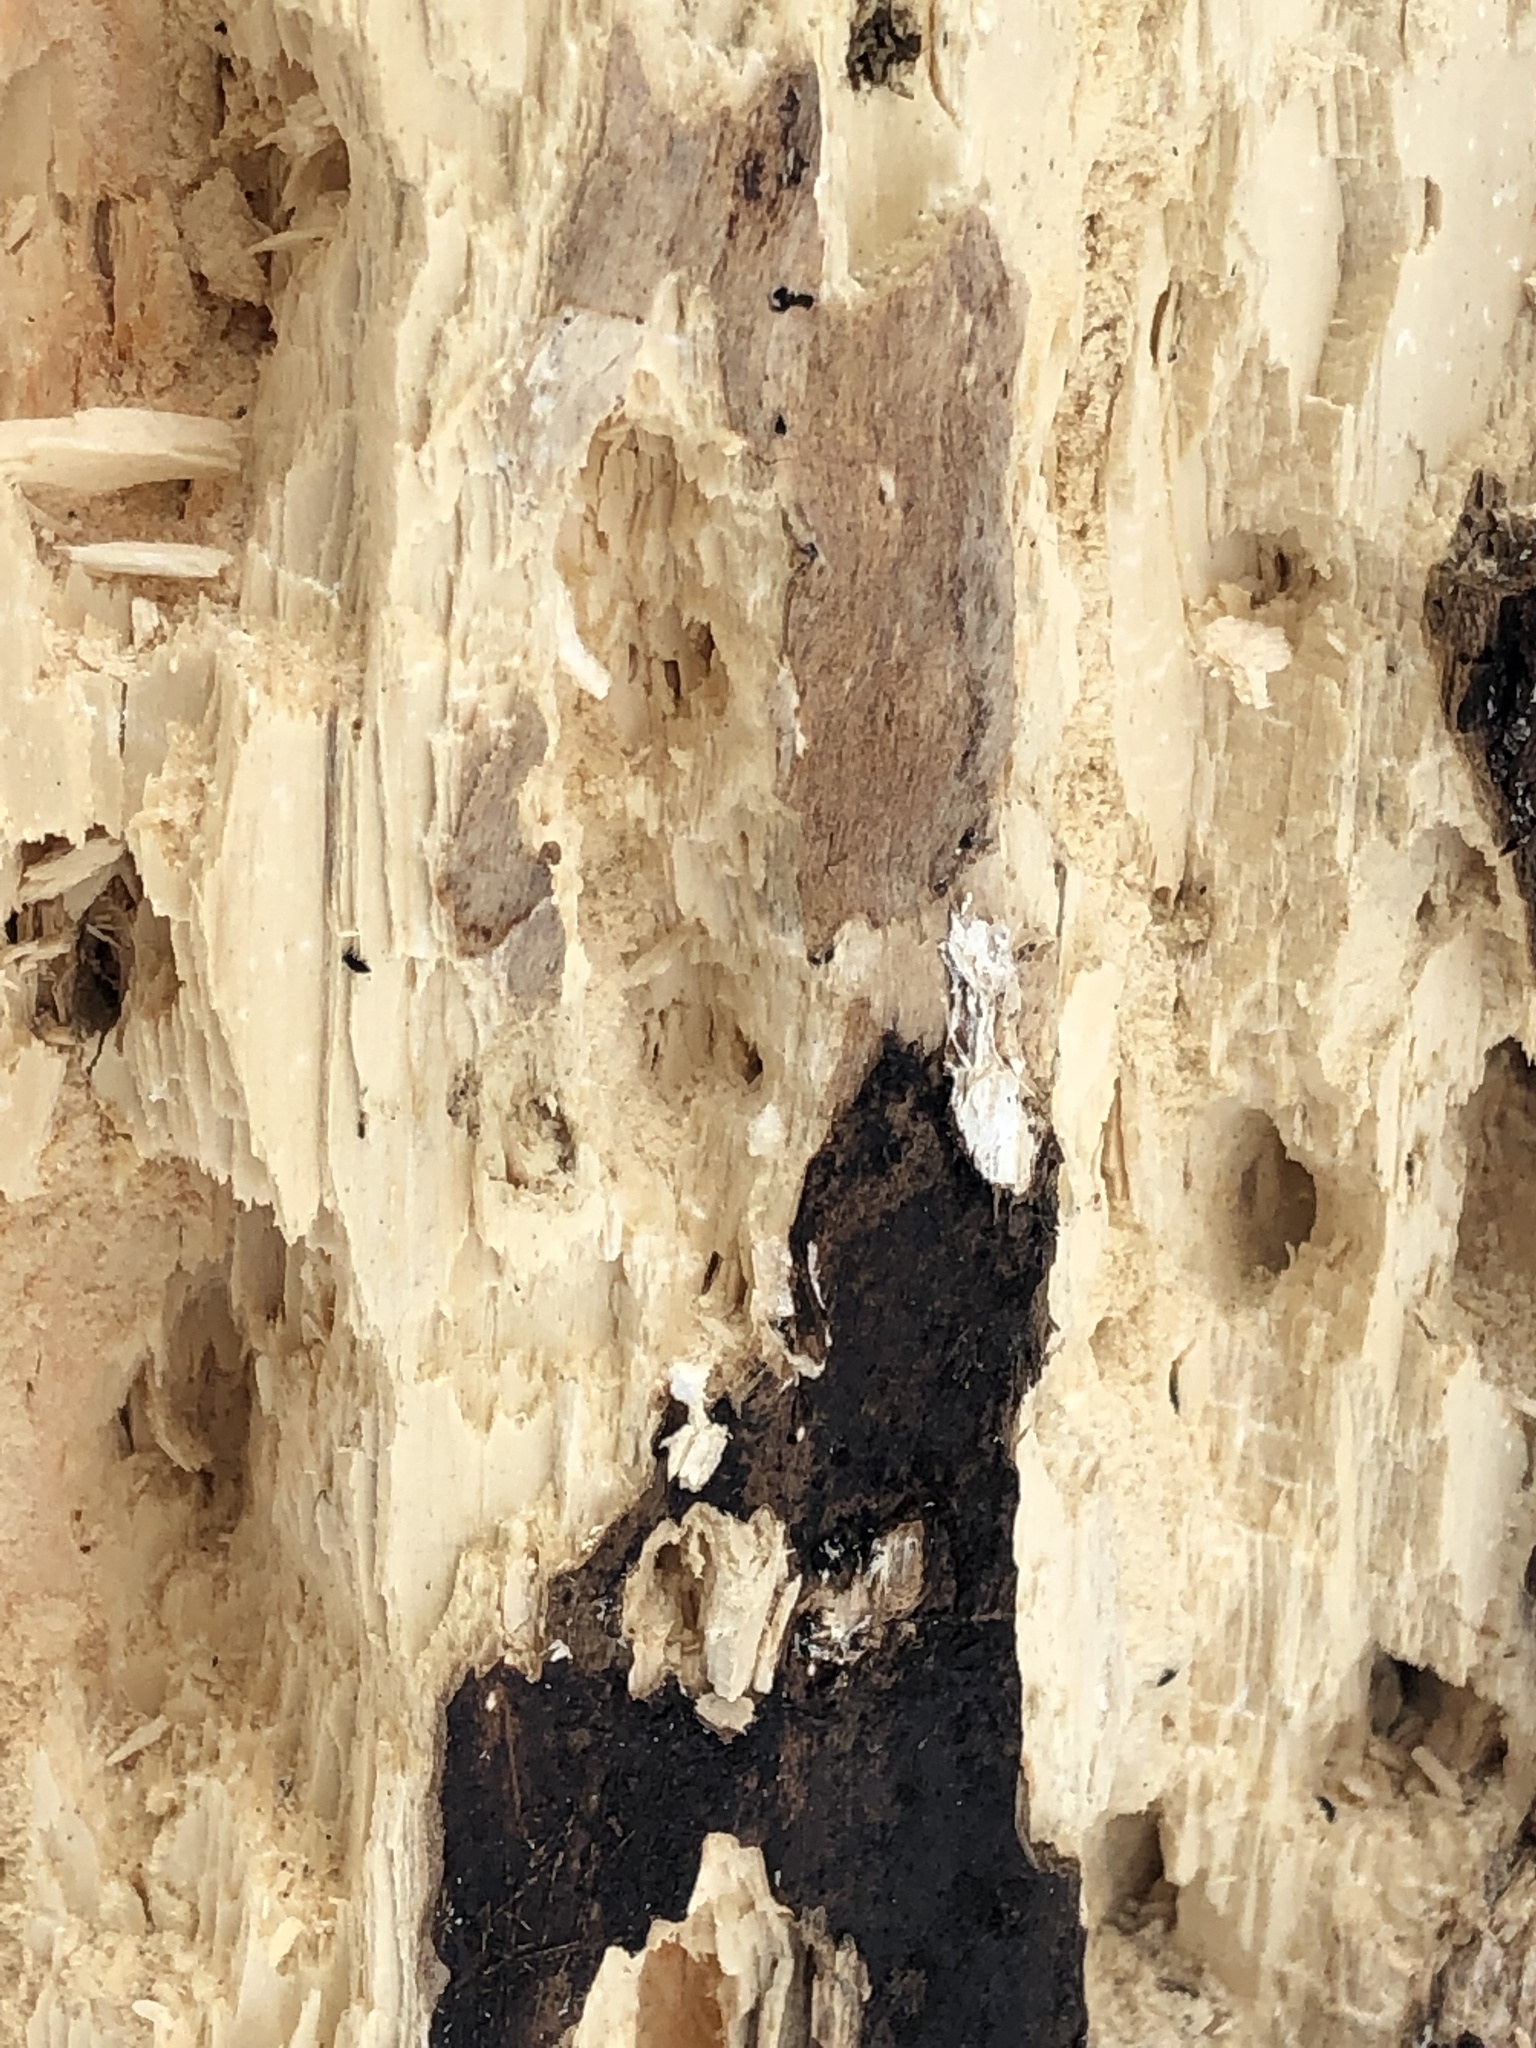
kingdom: Animalia
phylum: Chordata
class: Aves
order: Piciformes
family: Picidae
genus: Dryocopus
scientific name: Dryocopus pileatus
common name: Pileated woodpecker
